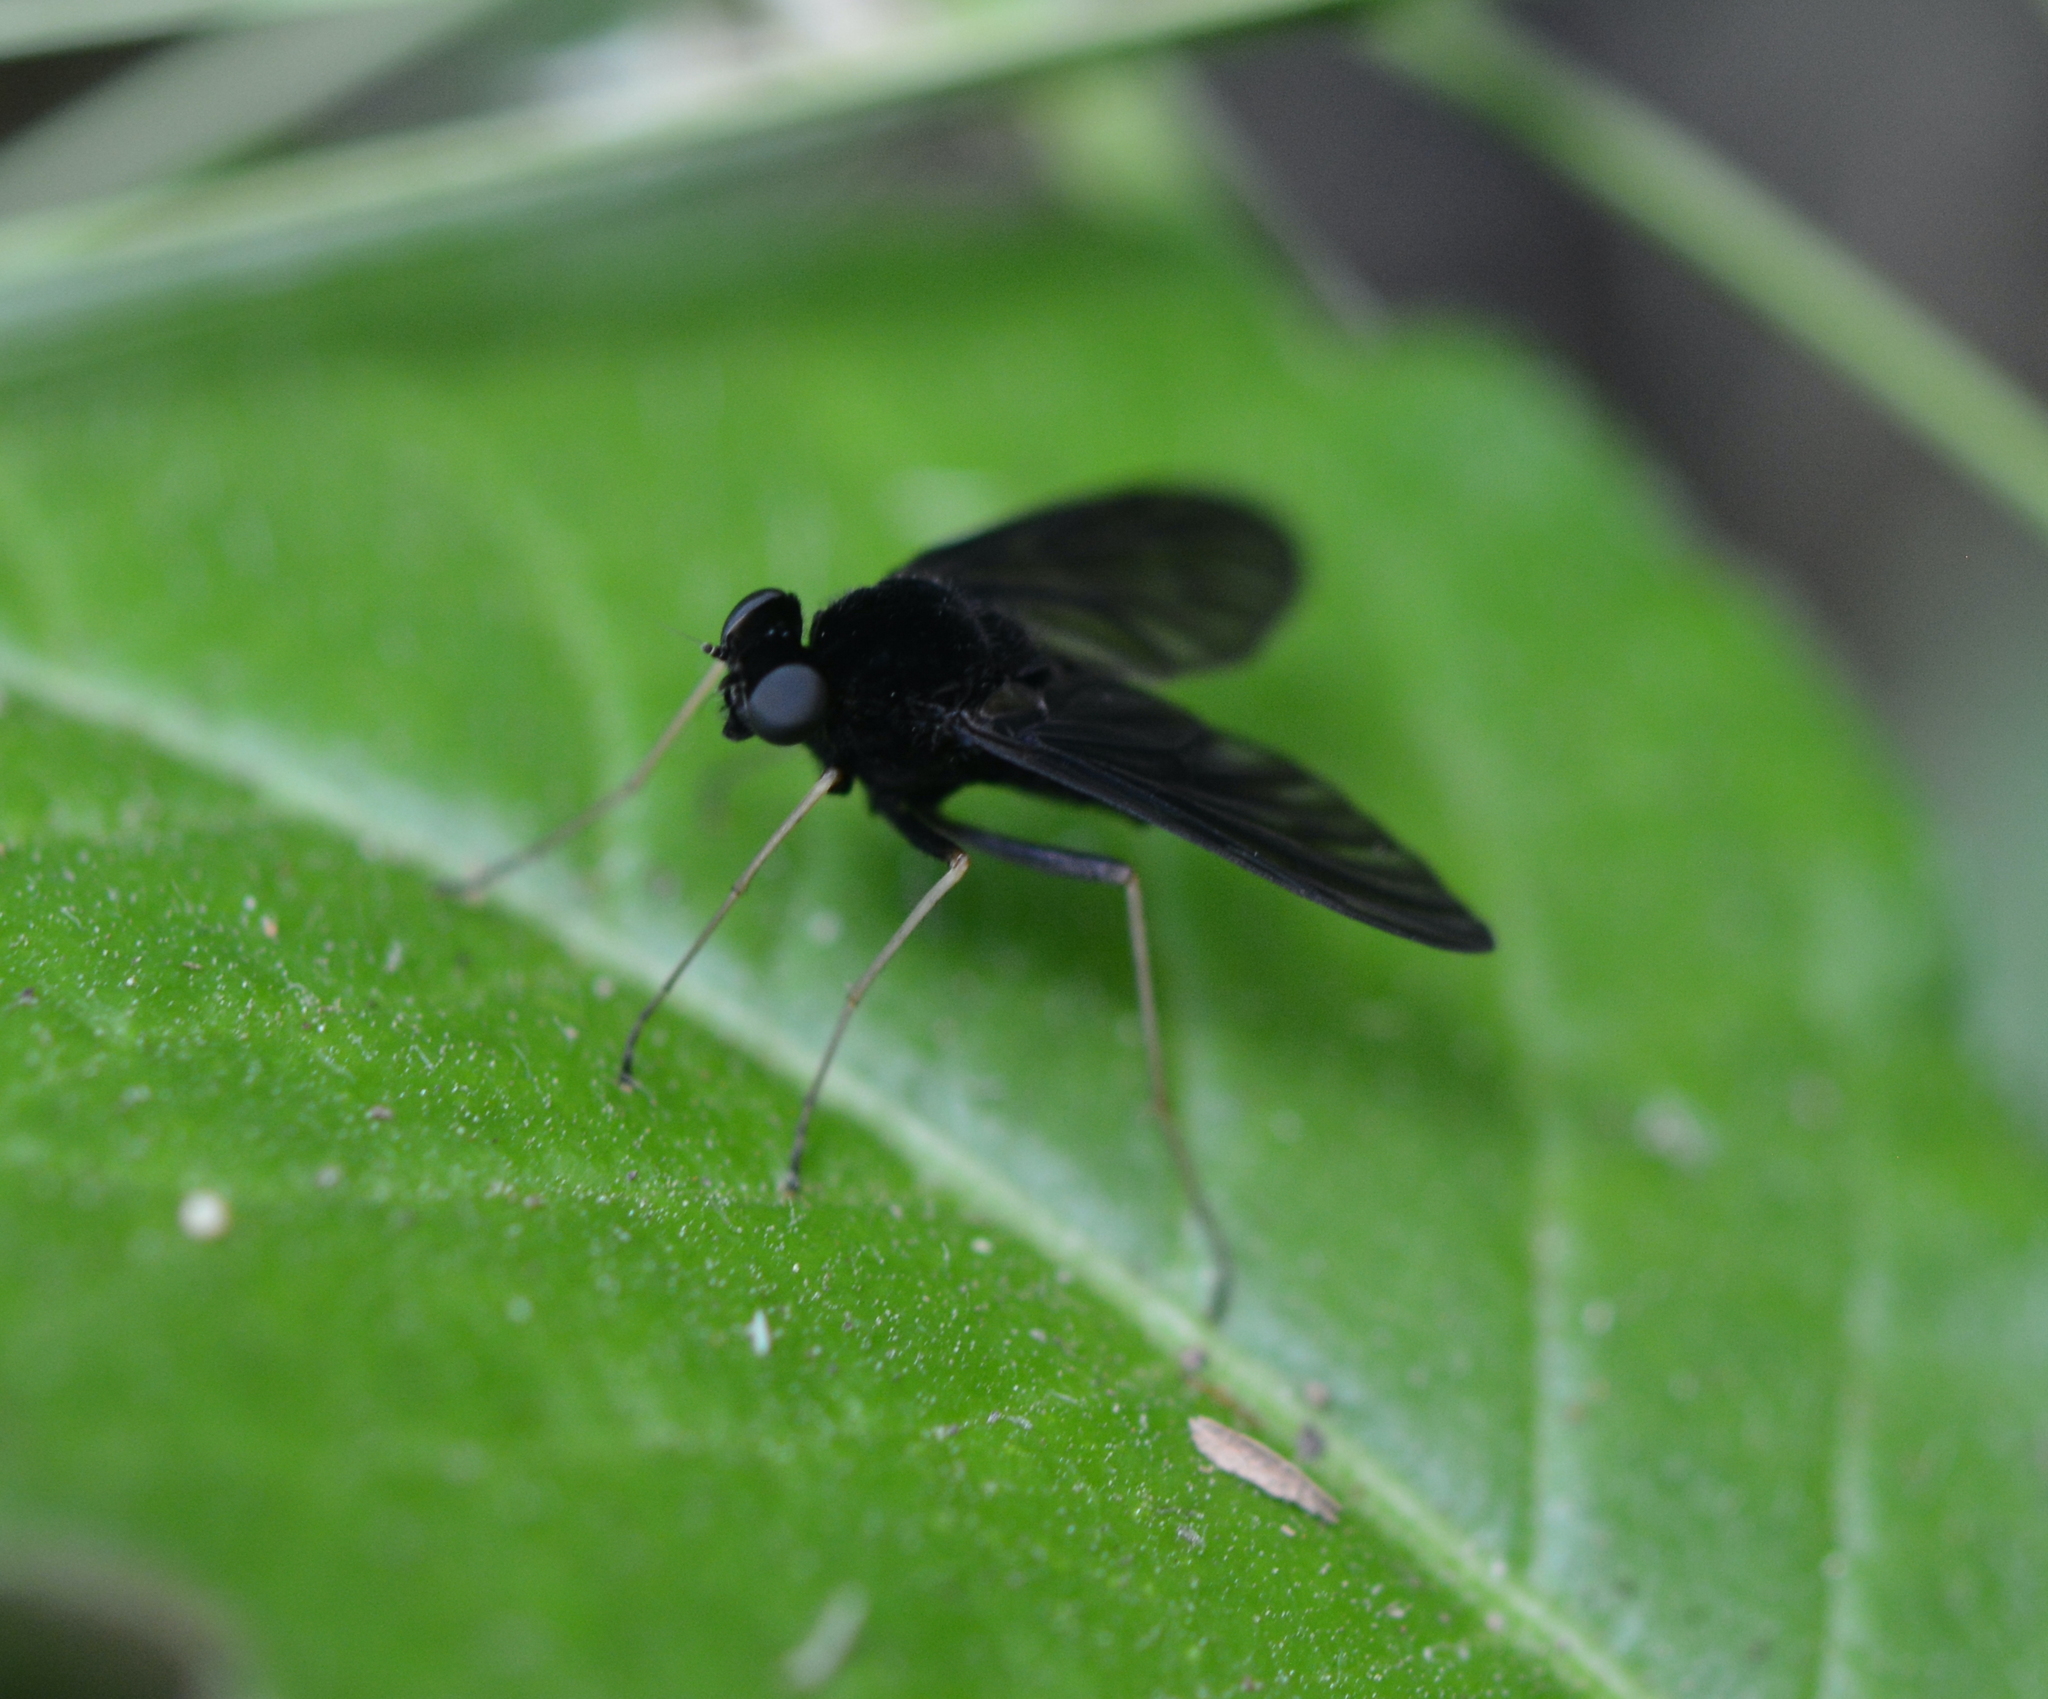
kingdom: Animalia
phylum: Arthropoda
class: Insecta
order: Diptera
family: Rhagionidae
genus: Chrysopilus
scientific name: Chrysopilus velutinus
